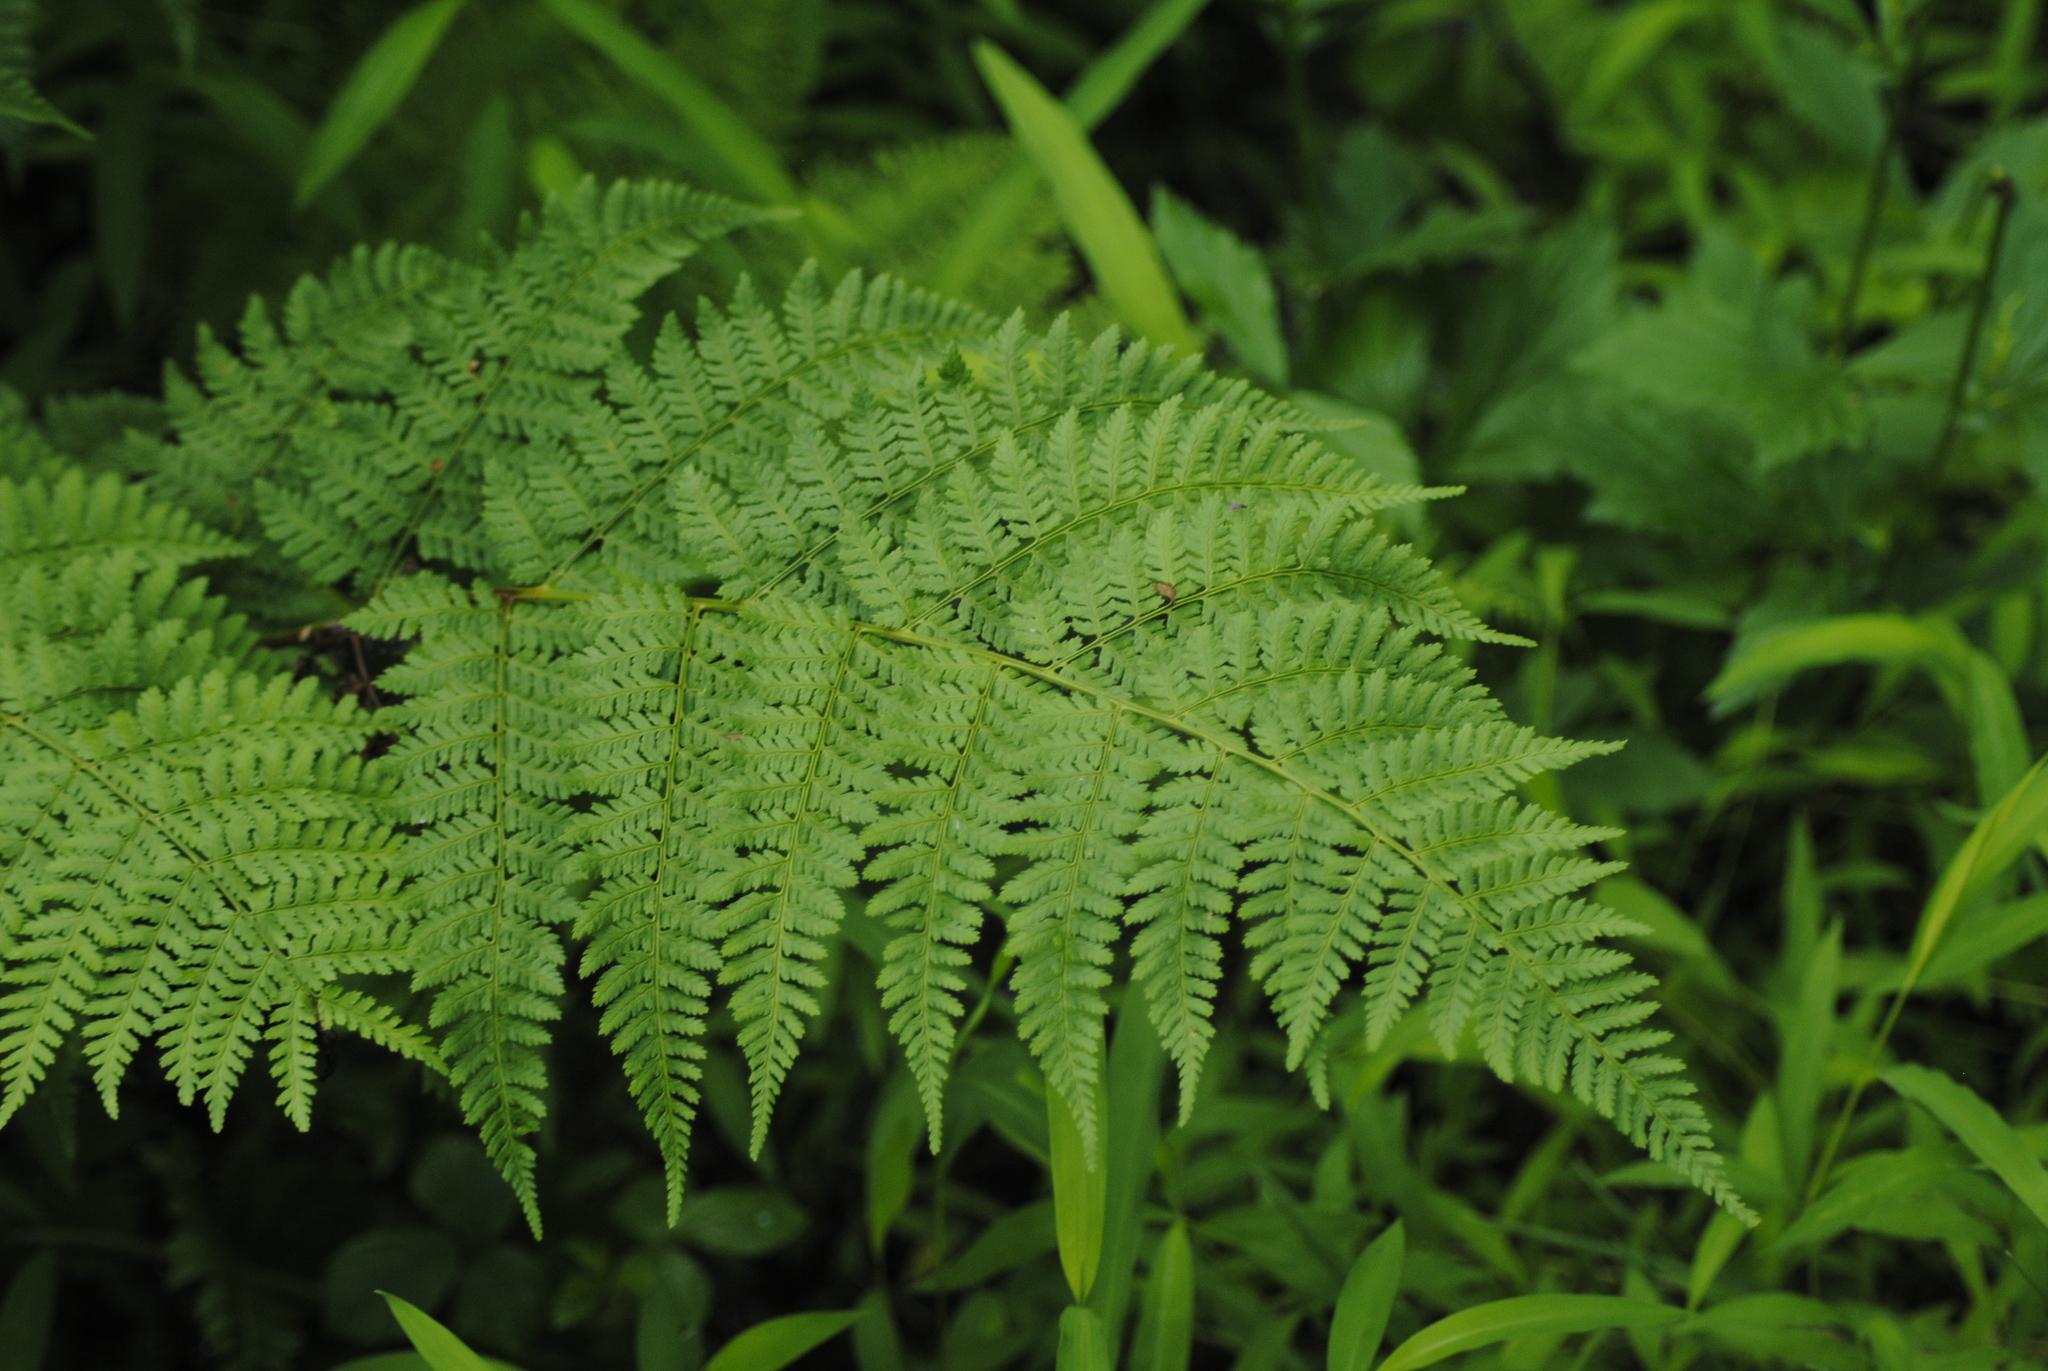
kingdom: Plantae
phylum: Tracheophyta
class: Polypodiopsida
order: Polypodiales
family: Dryopteridaceae
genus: Dryopteris
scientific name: Dryopteris carthusiana
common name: Narrow buckler-fern
